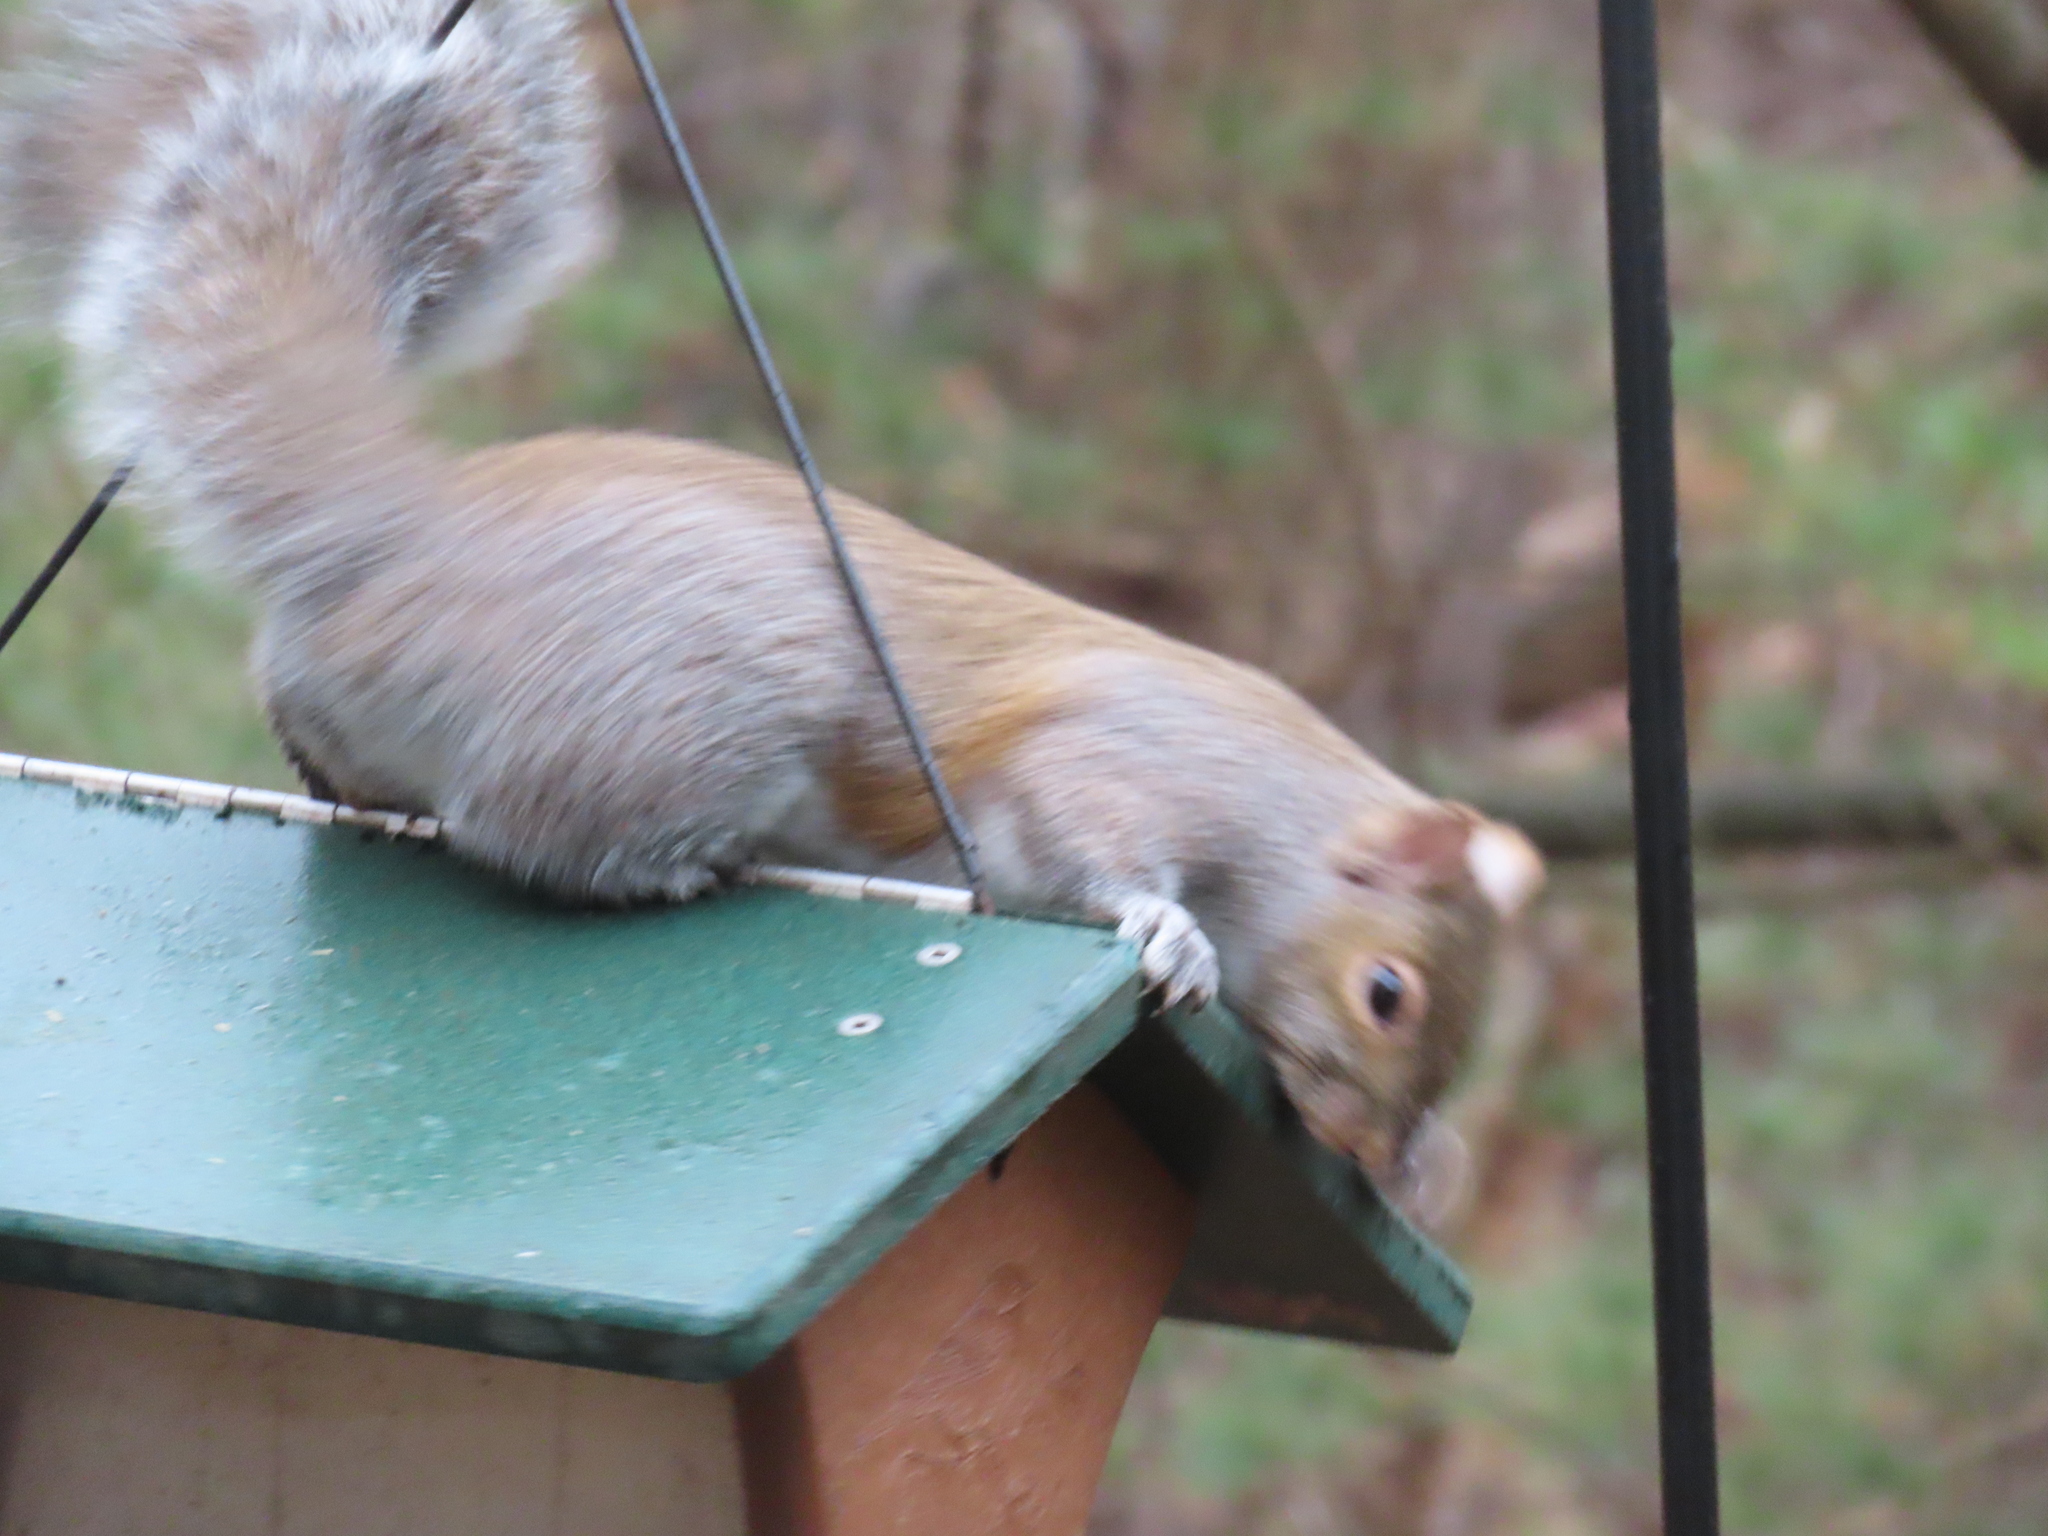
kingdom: Animalia
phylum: Chordata
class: Mammalia
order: Rodentia
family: Sciuridae
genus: Sciurus
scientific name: Sciurus carolinensis
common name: Eastern gray squirrel
